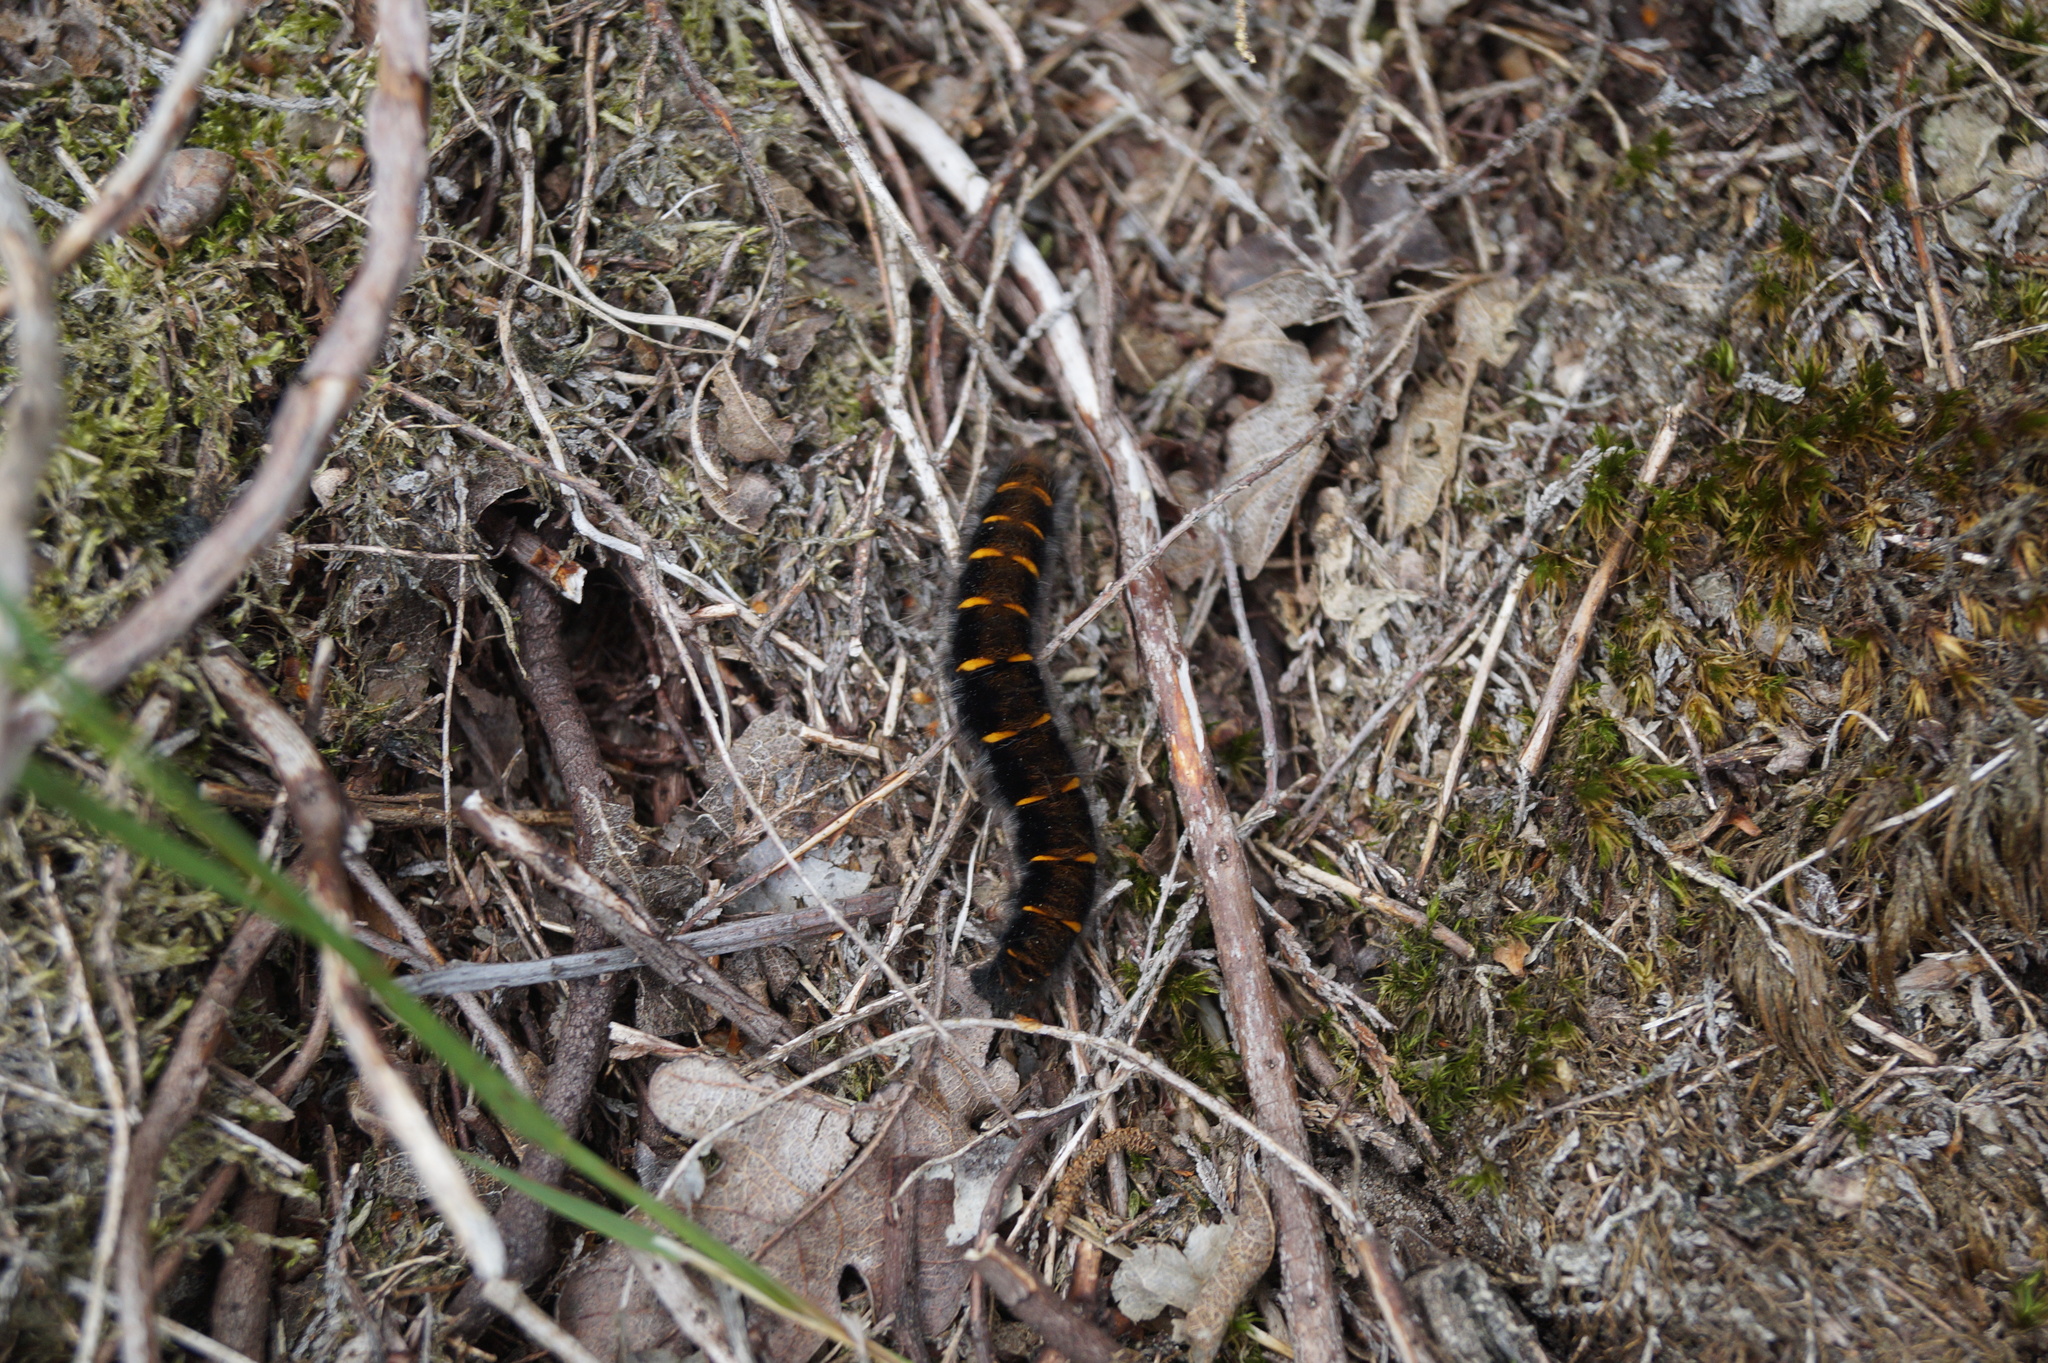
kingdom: Animalia
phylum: Arthropoda
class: Insecta
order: Lepidoptera
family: Lasiocampidae
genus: Macrothylacia
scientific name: Macrothylacia rubi
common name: Fox moth
